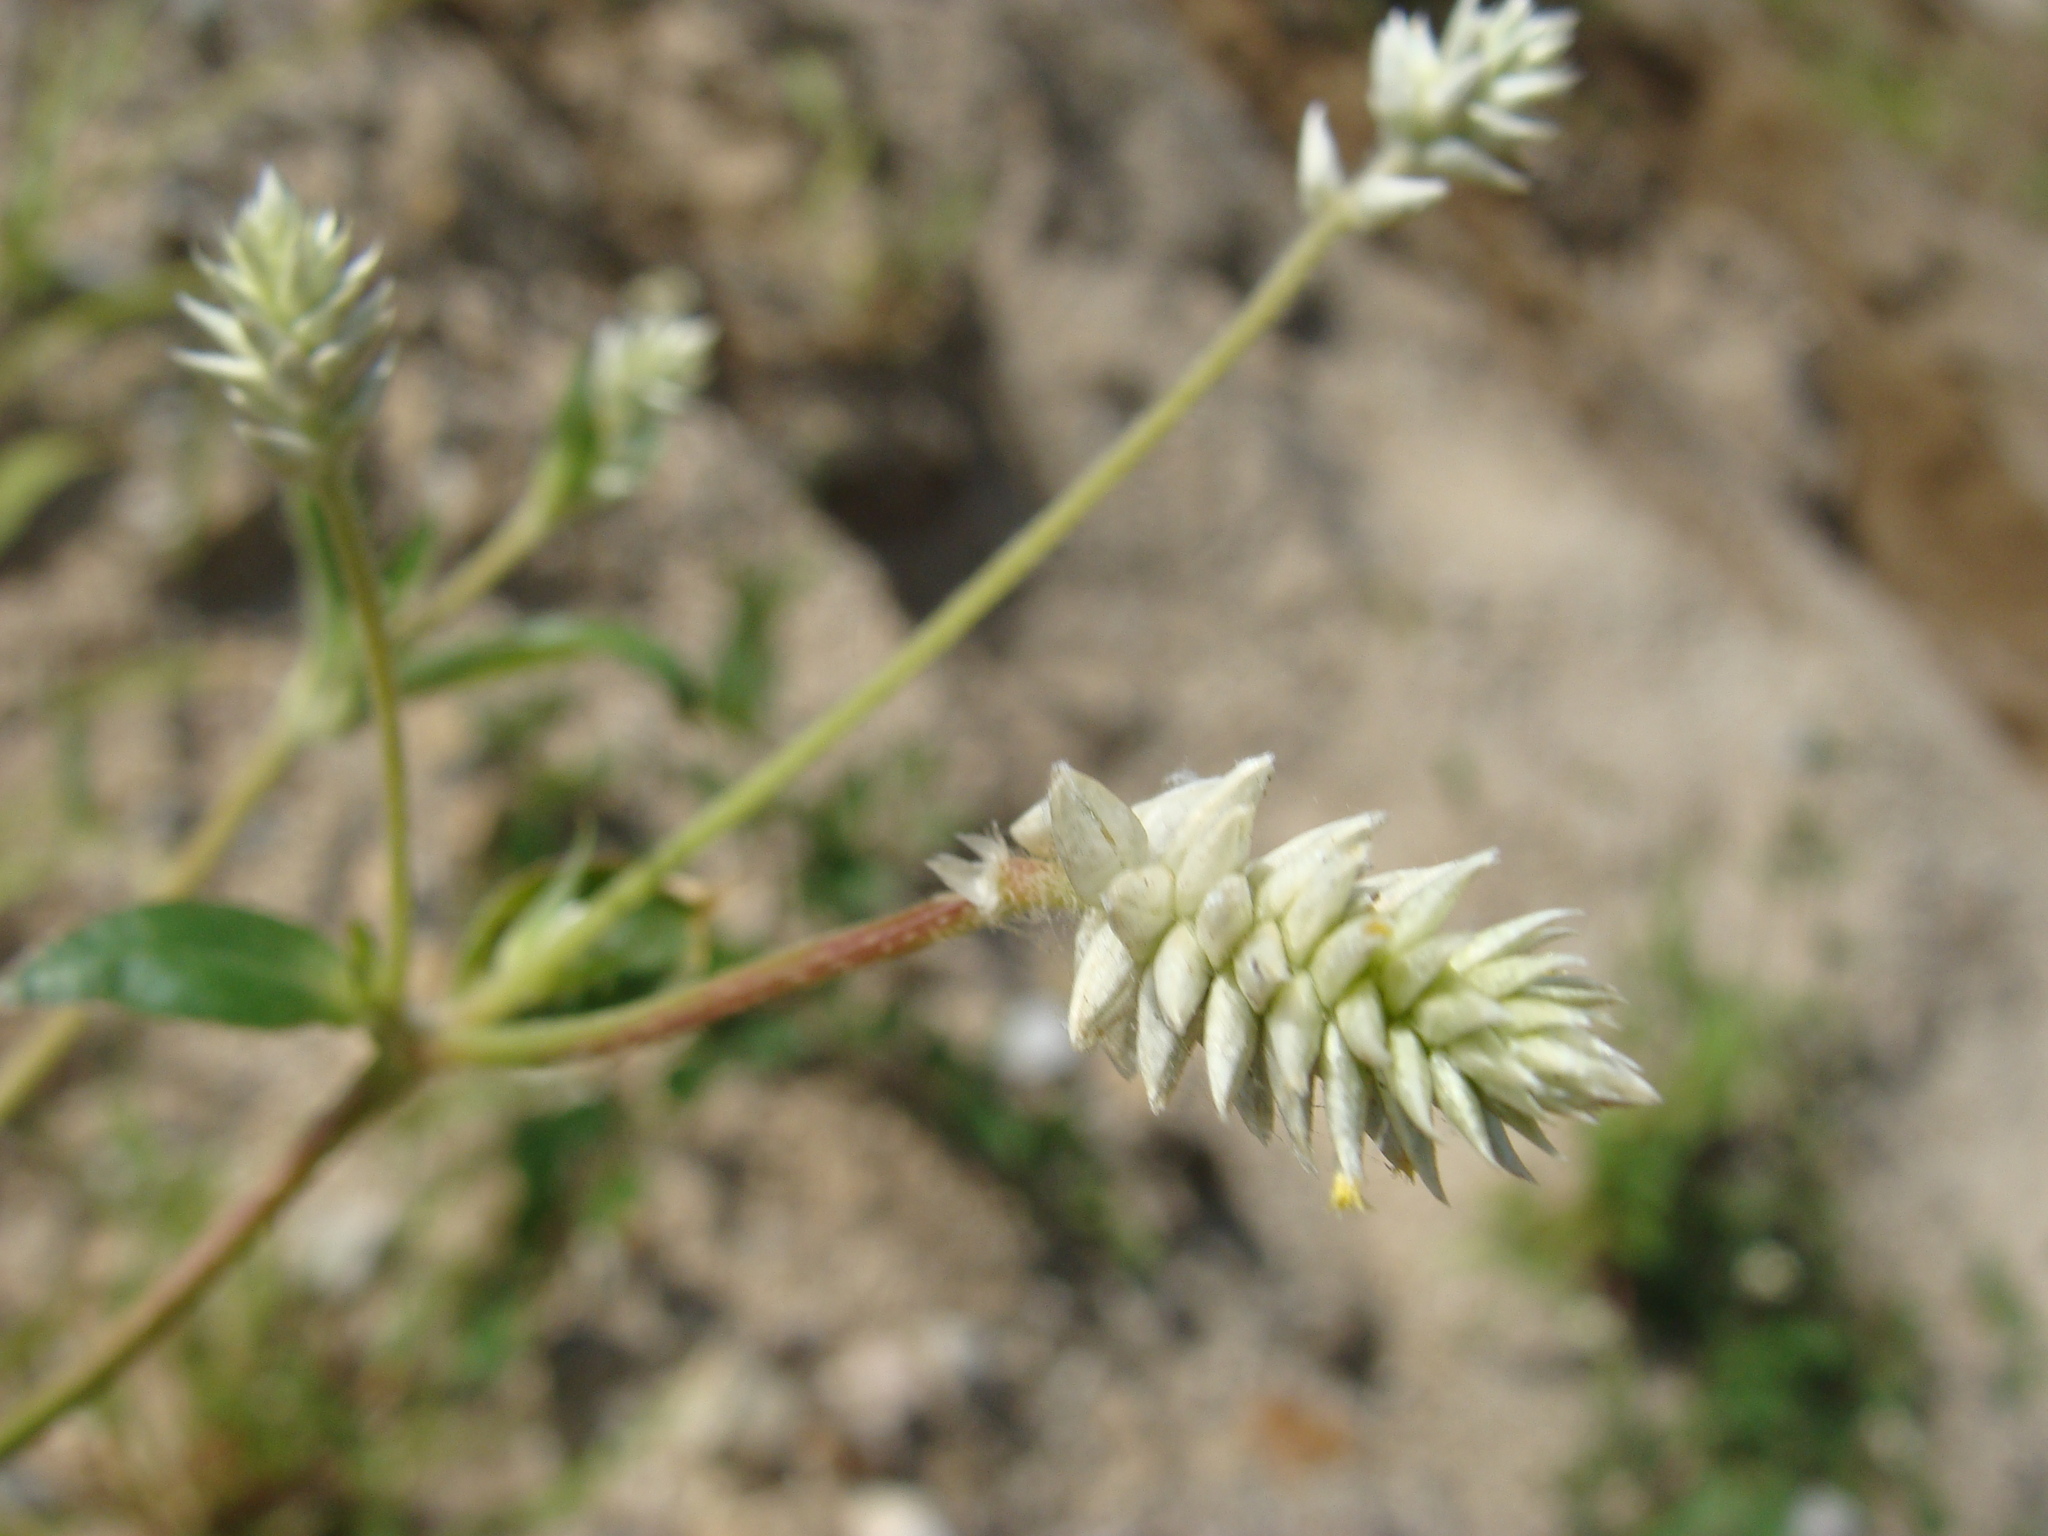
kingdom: Plantae
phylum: Tracheophyta
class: Magnoliopsida
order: Caryophyllales
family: Amaranthaceae
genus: Gomphrena
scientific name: Gomphrena sonorae
